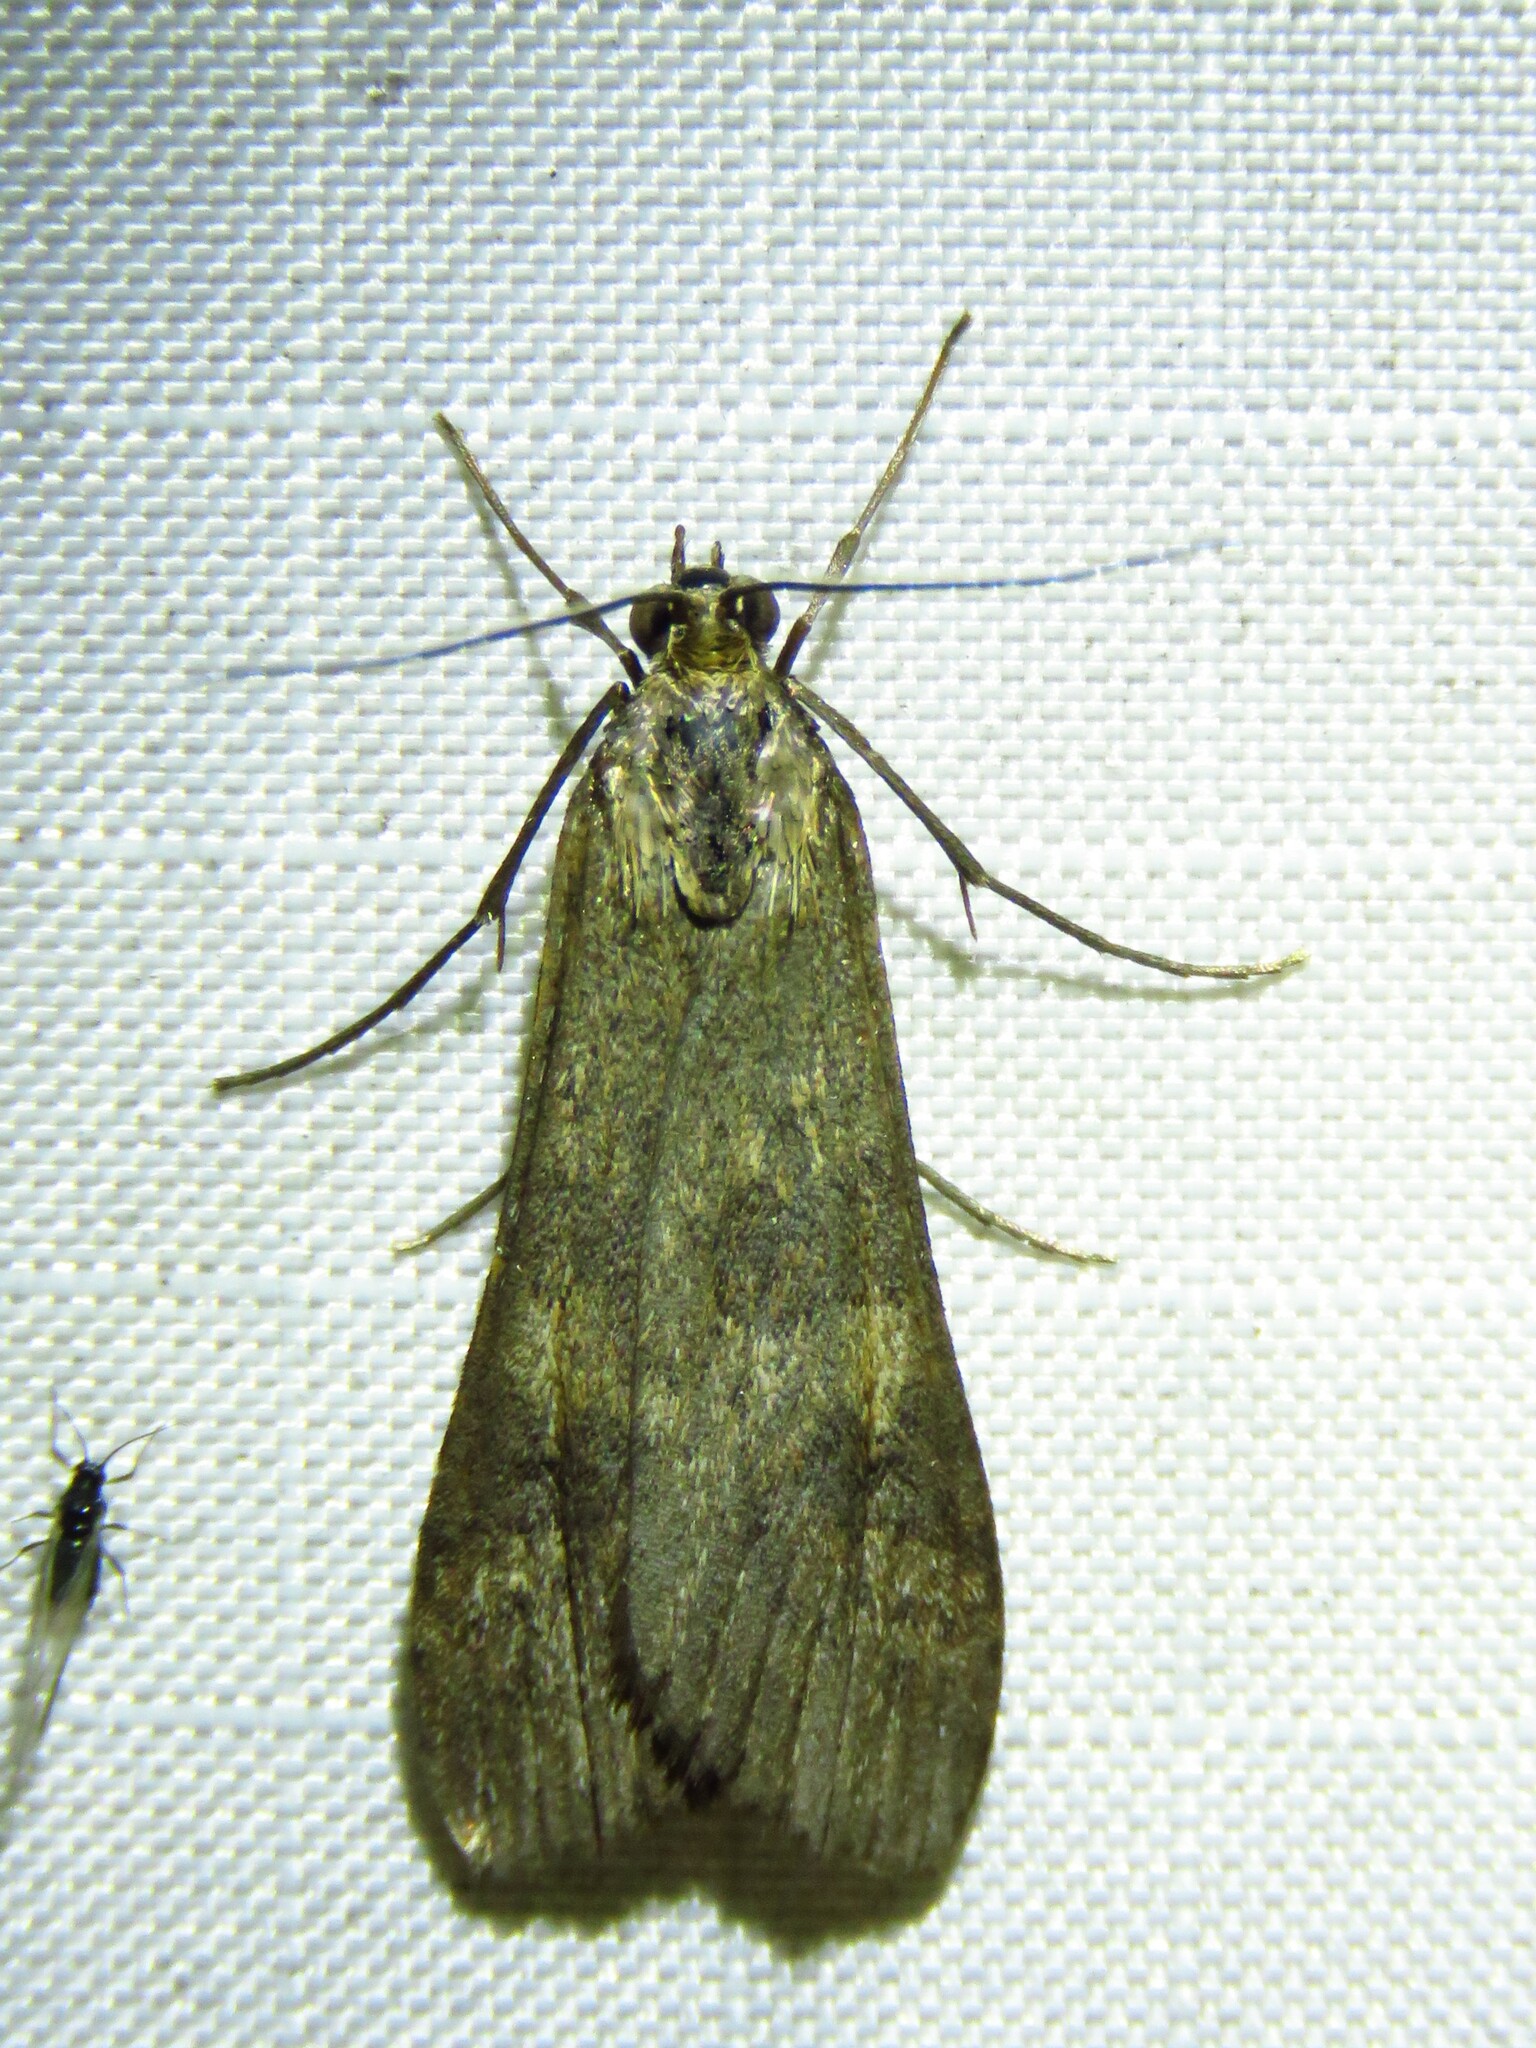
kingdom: Animalia
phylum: Arthropoda
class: Insecta
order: Lepidoptera
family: Crambidae
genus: Nomophila
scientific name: Nomophila nearctica
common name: American rush veneer
